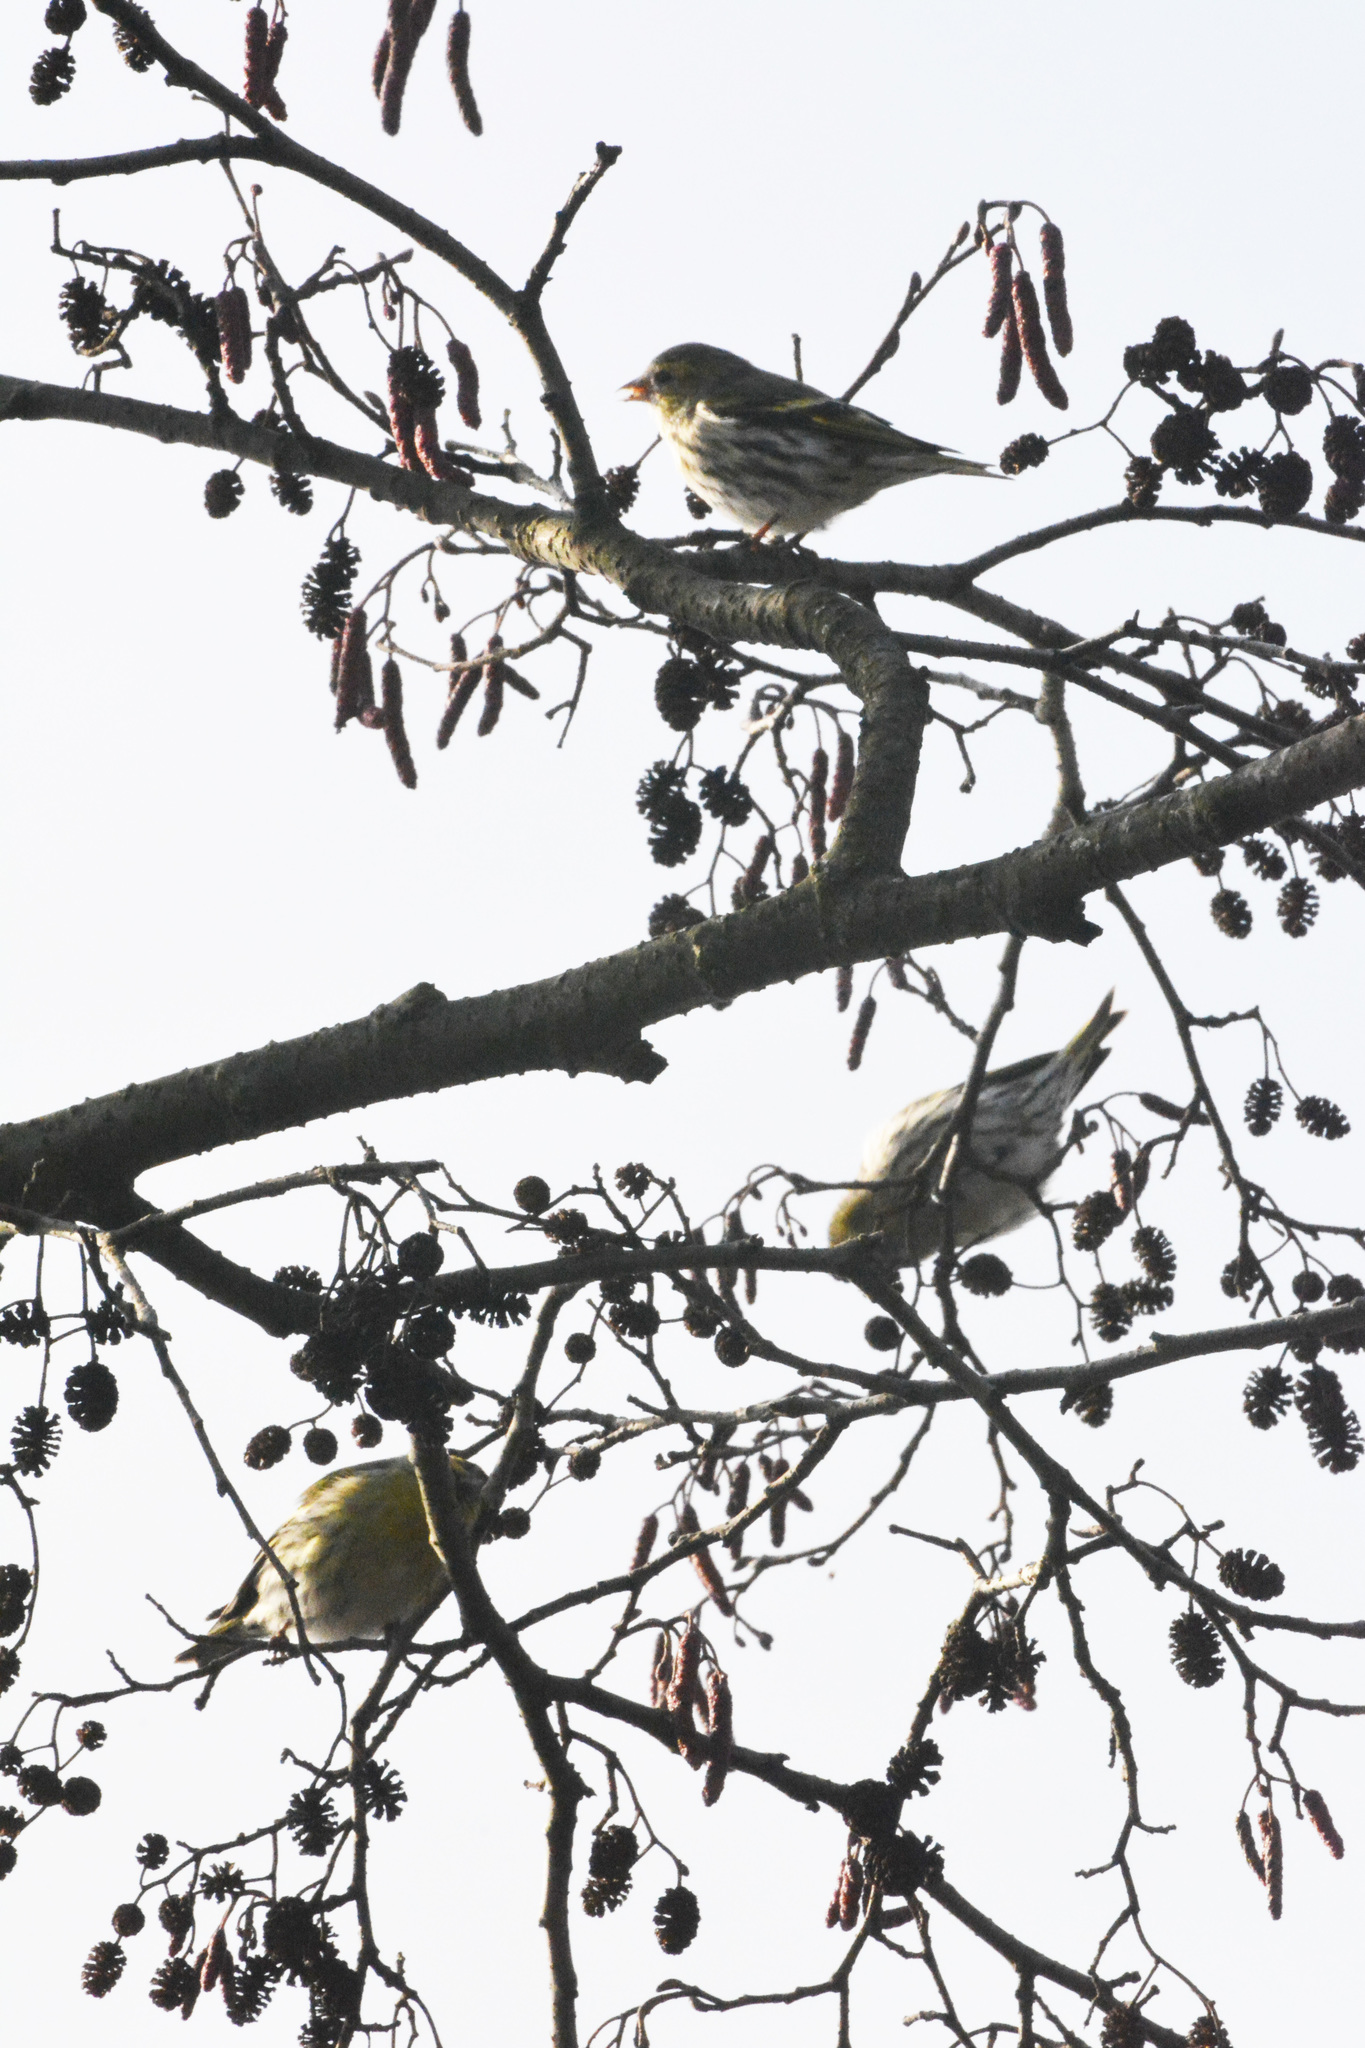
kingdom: Animalia
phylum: Chordata
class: Aves
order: Passeriformes
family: Fringillidae
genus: Spinus
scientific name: Spinus spinus
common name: Eurasian siskin
